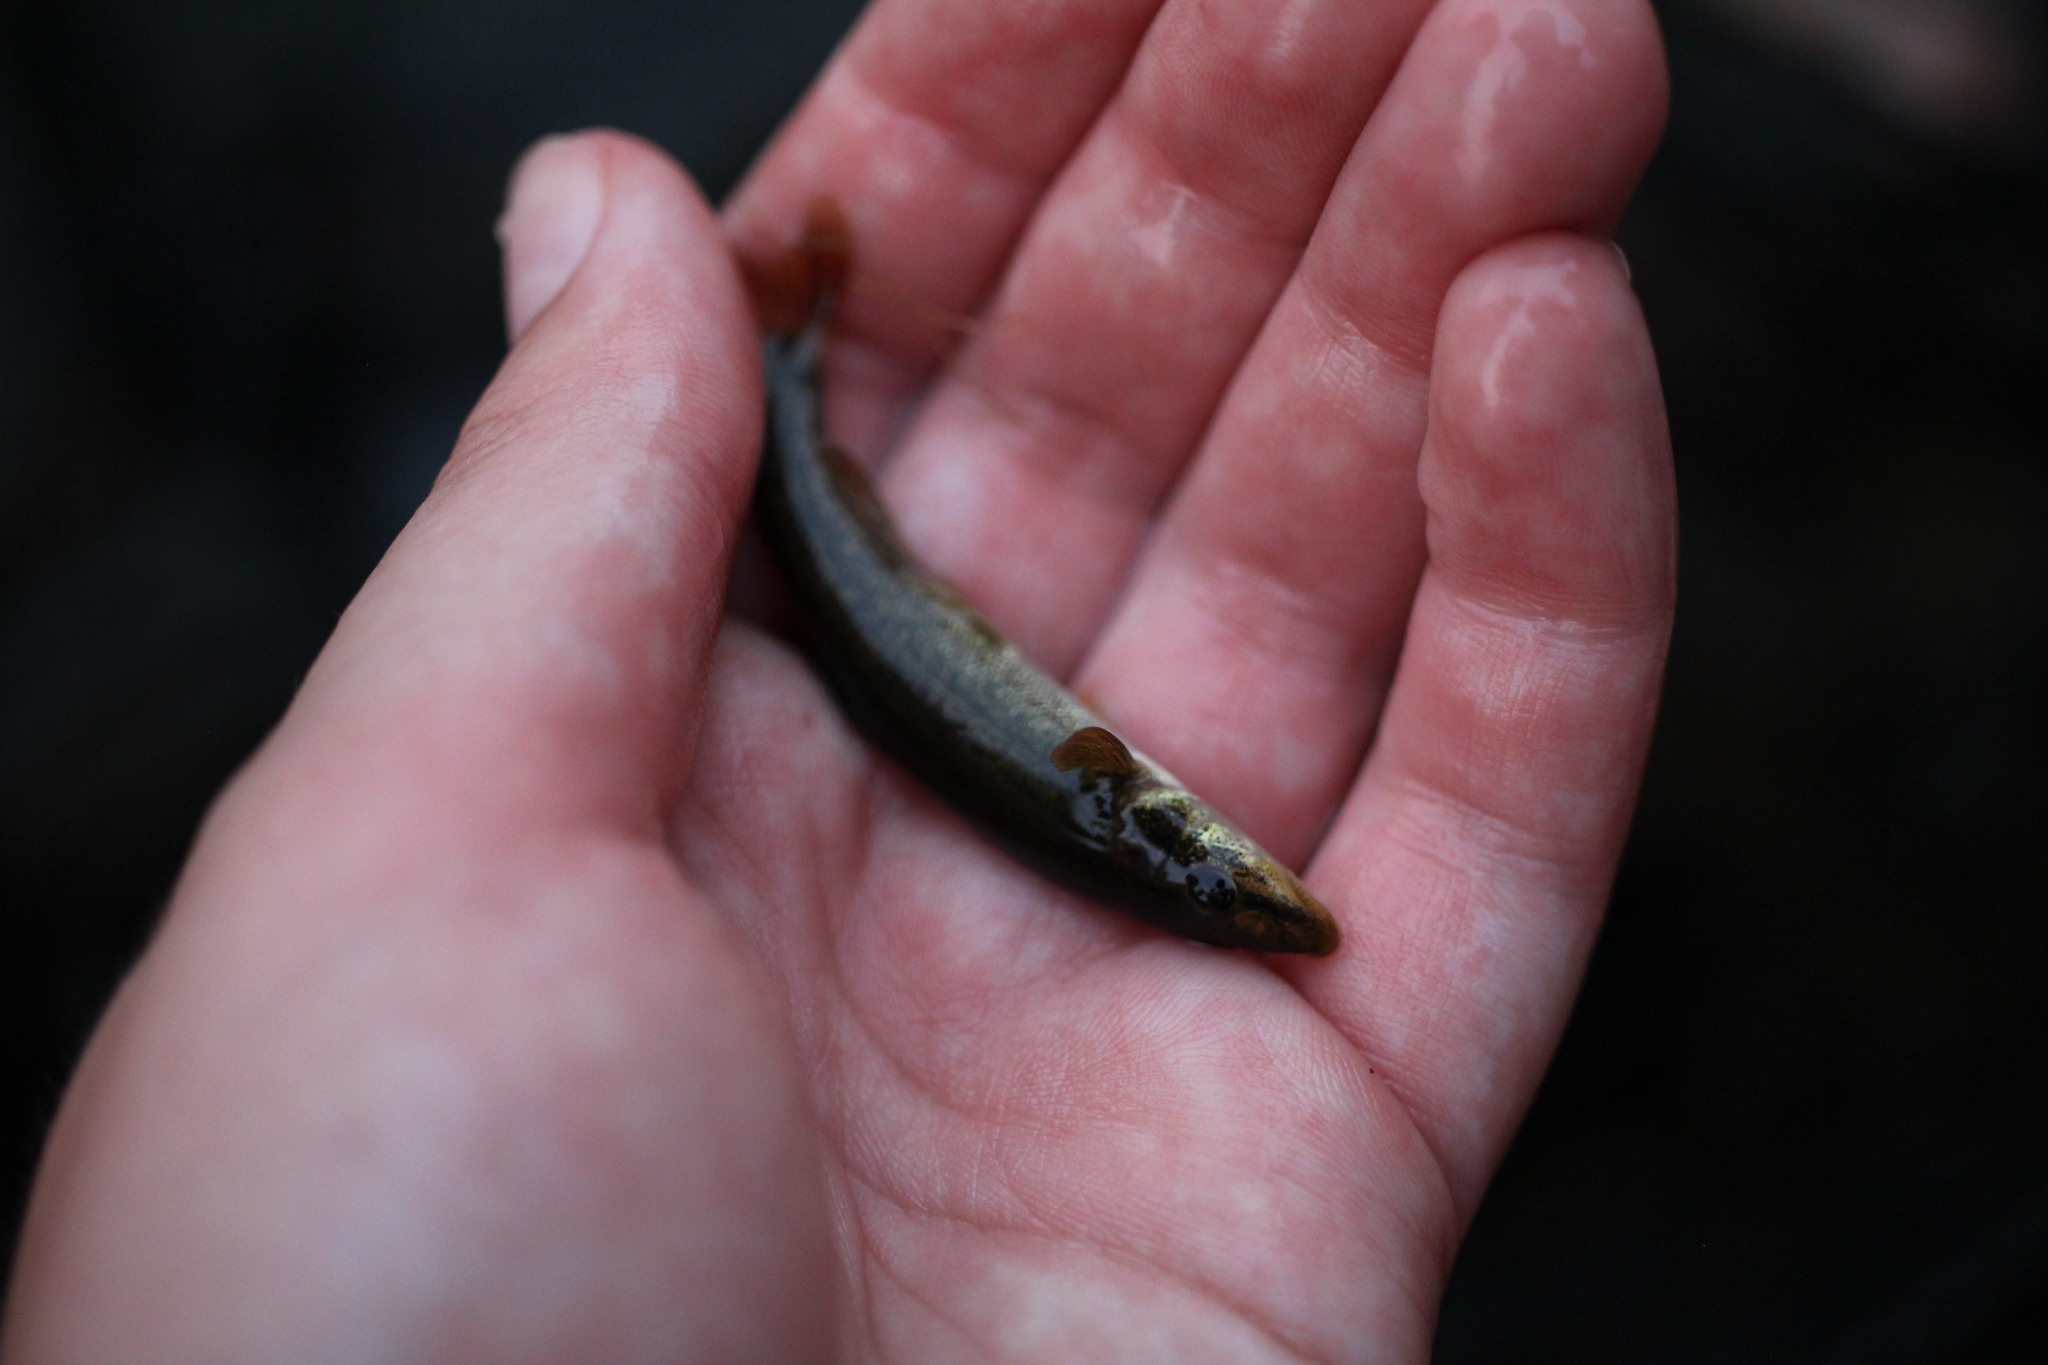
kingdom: Animalia
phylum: Chordata
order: Cypriniformes
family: Cyprinidae
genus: Rhinichthys
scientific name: Rhinichthys cataractae
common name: Longnose dace
